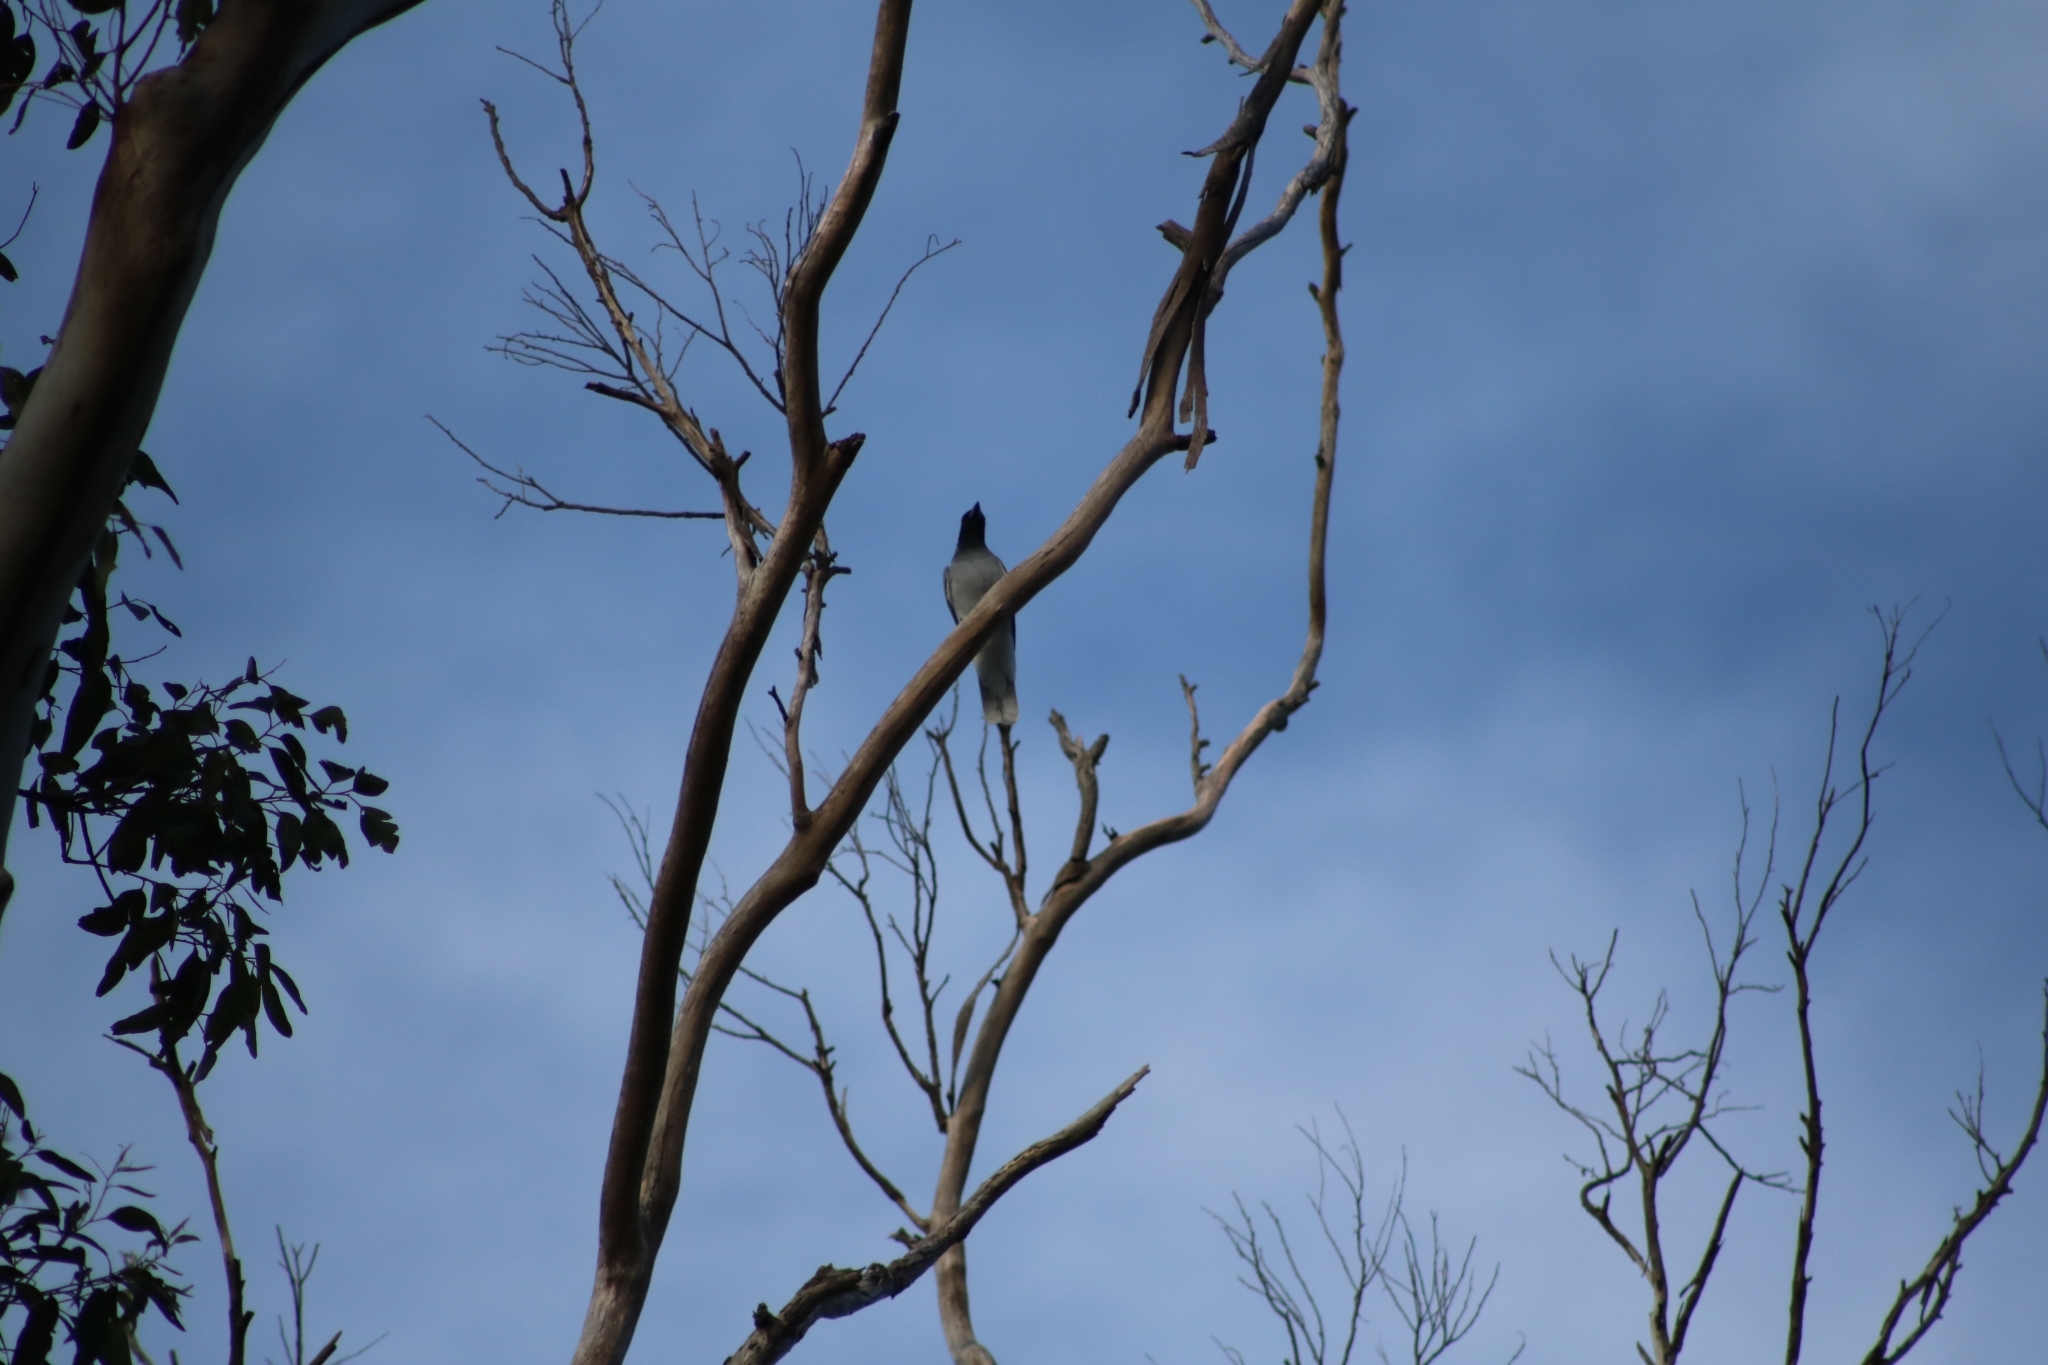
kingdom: Animalia
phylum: Chordata
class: Aves
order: Passeriformes
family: Campephagidae
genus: Coracina
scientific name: Coracina novaehollandiae
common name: Black-faced cuckooshrike
